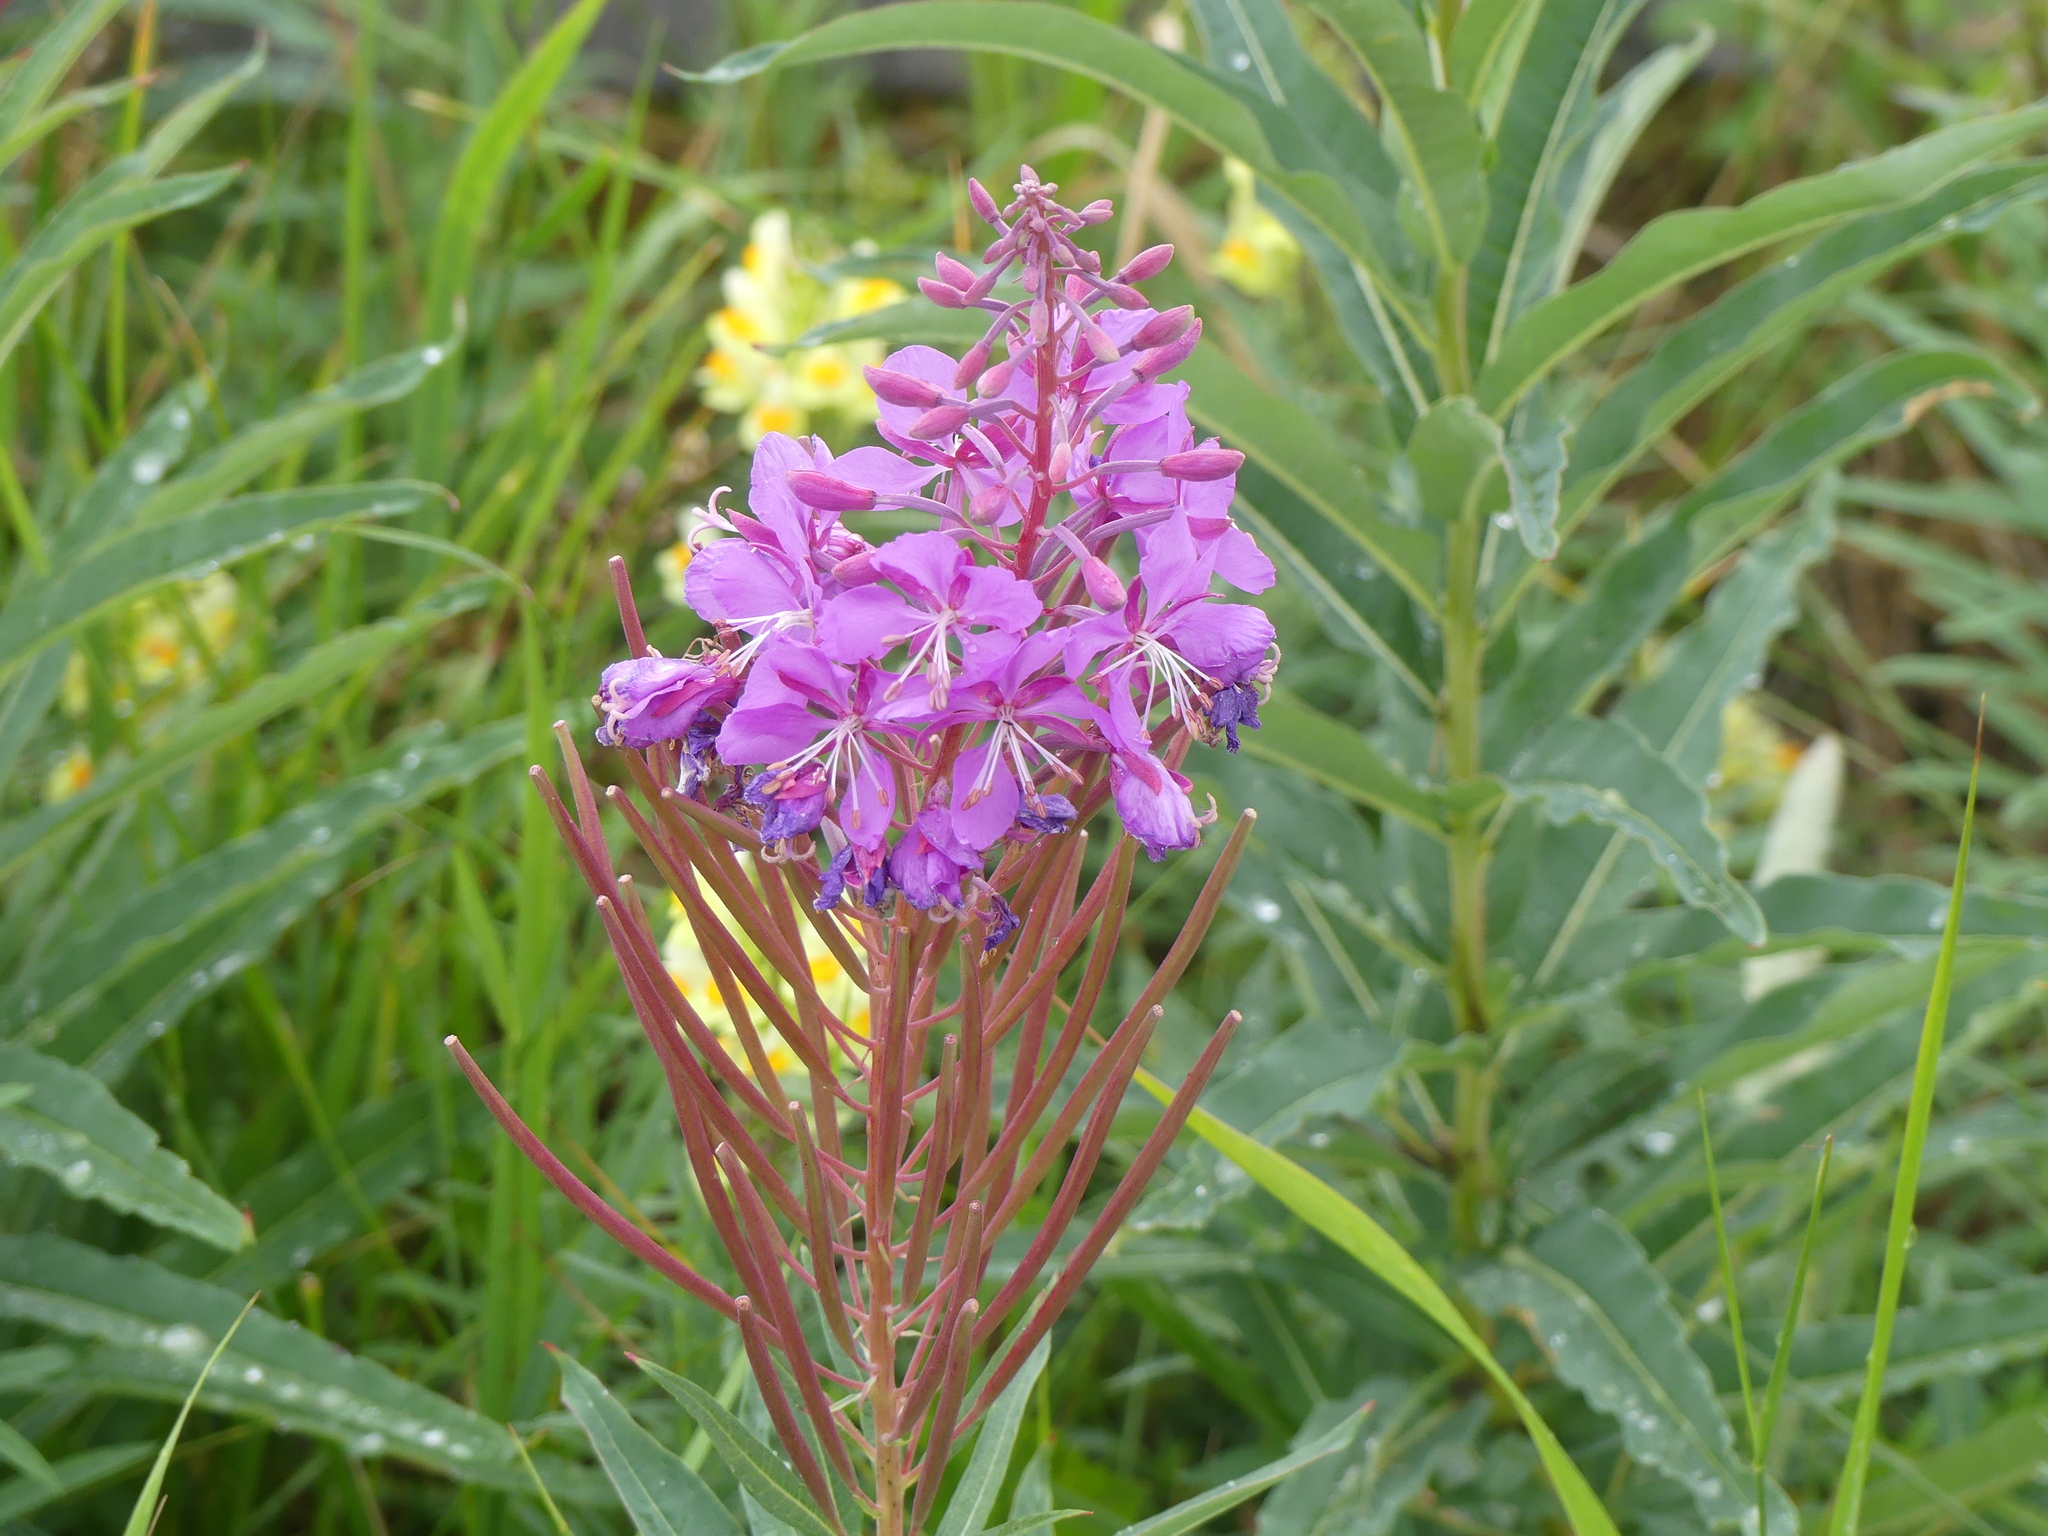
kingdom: Plantae
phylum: Tracheophyta
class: Magnoliopsida
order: Myrtales
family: Onagraceae
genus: Chamaenerion
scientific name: Chamaenerion angustifolium
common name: Fireweed
